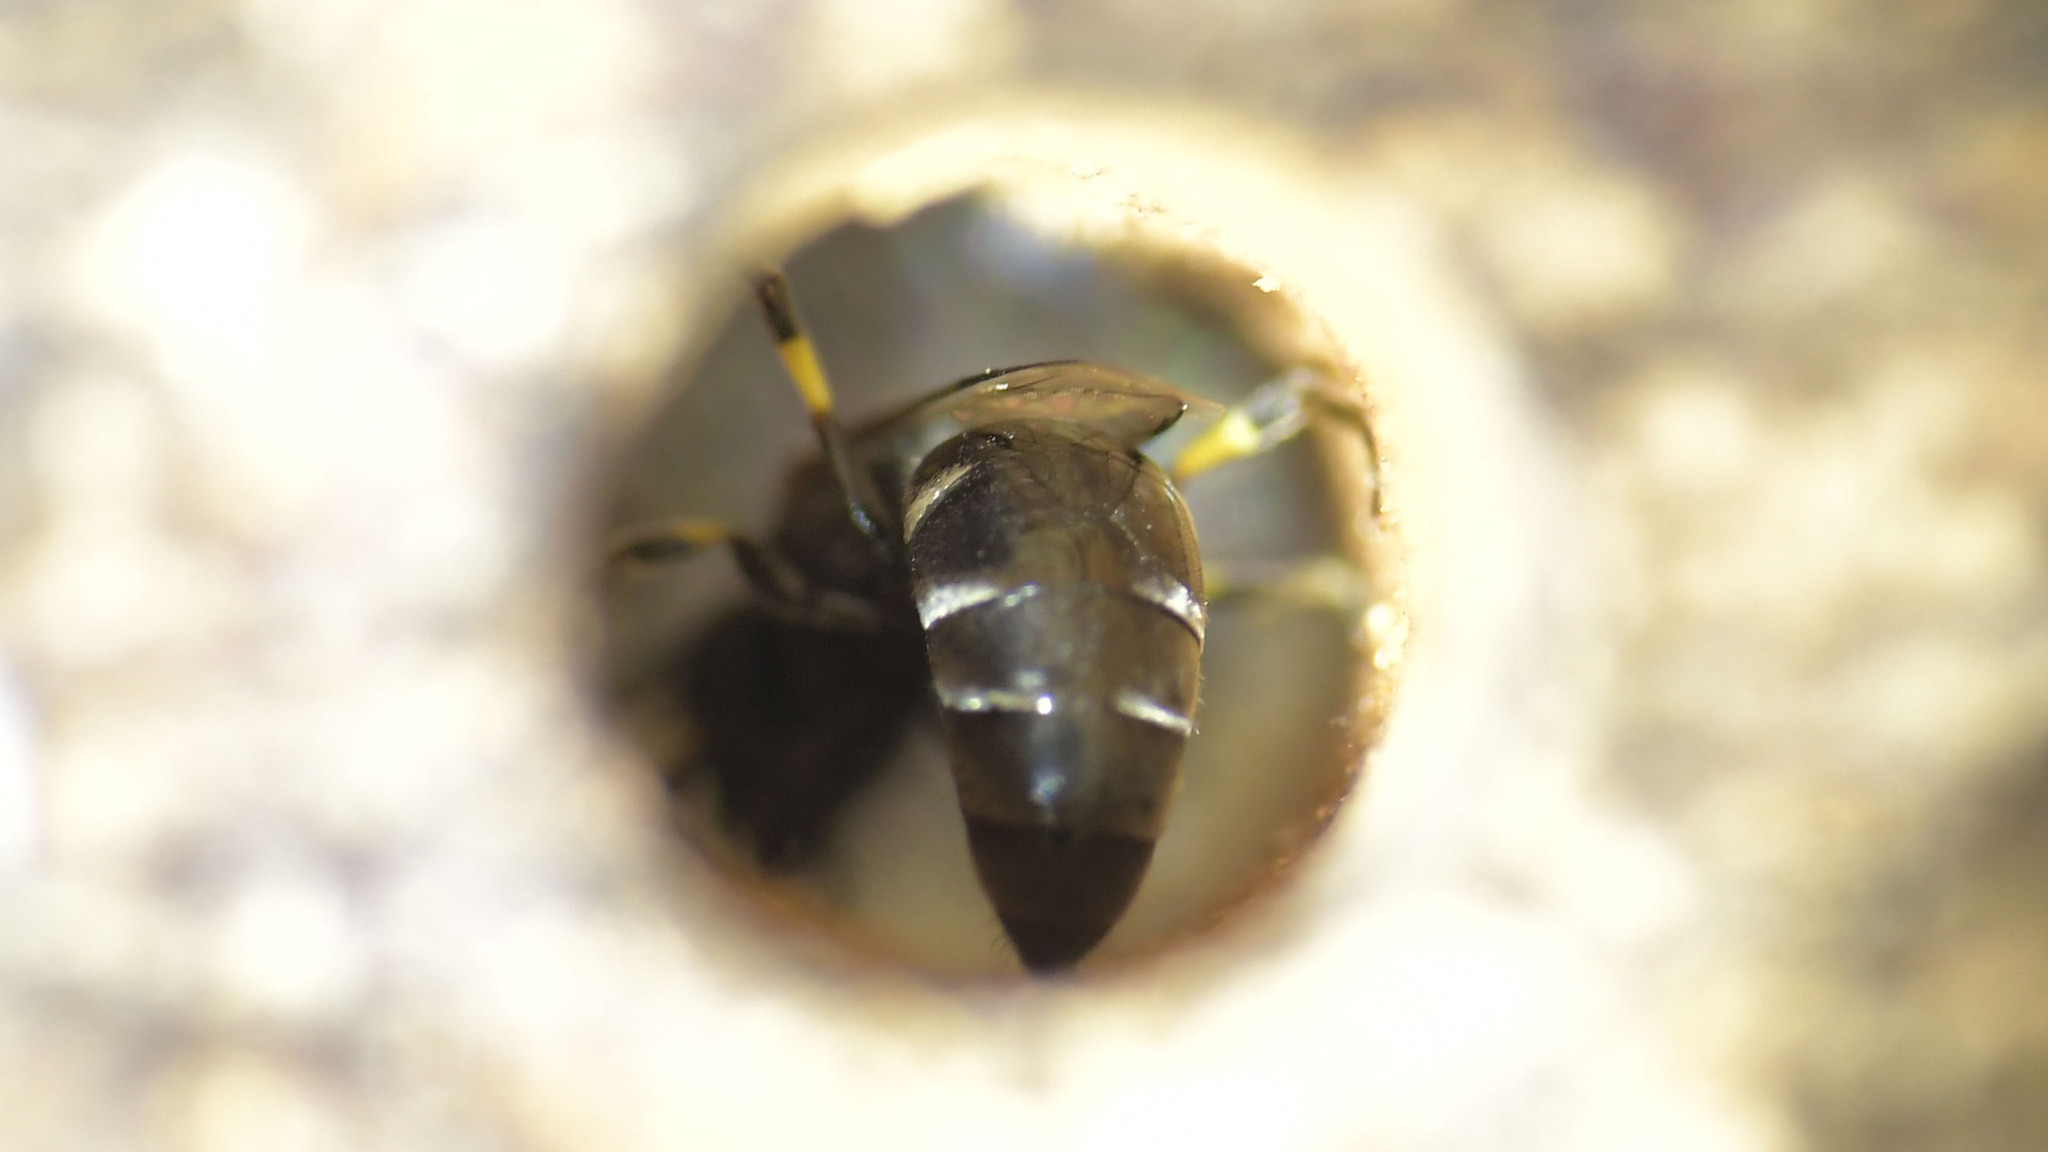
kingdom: Animalia
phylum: Arthropoda
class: Insecta
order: Hymenoptera
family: Colletidae
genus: Hylaeus
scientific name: Hylaeus mediolucens
